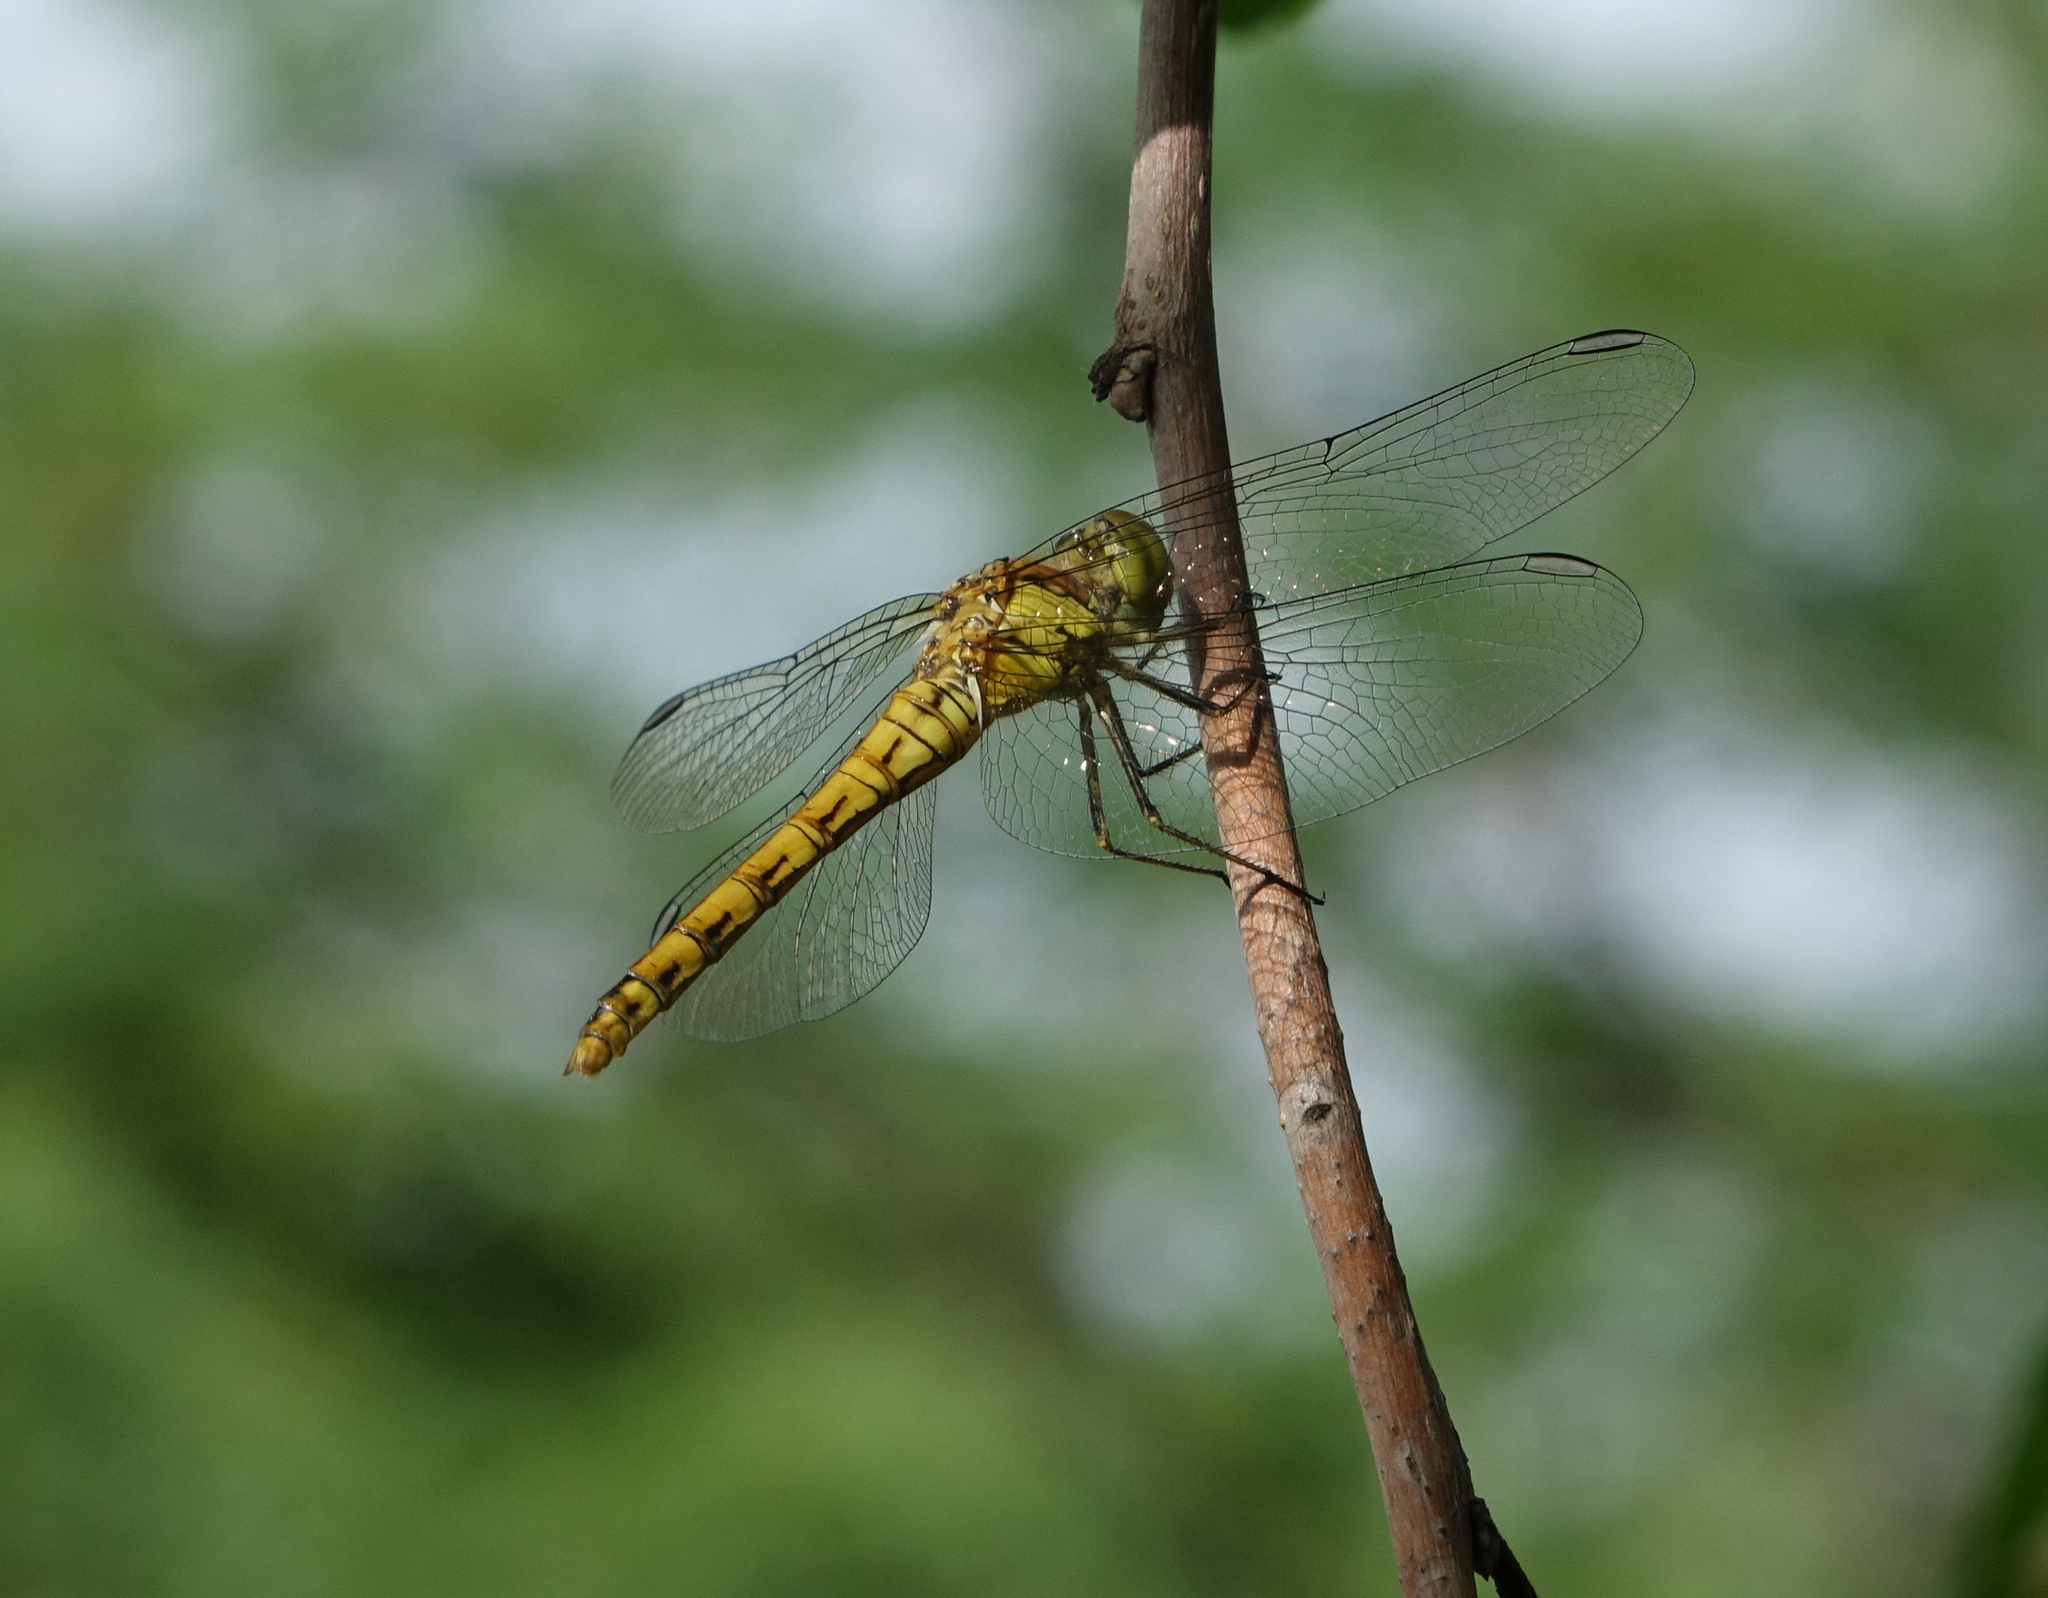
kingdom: Animalia
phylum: Arthropoda
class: Insecta
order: Odonata
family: Libellulidae
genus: Sympetrum
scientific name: Sympetrum striolatum
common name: Common darter
